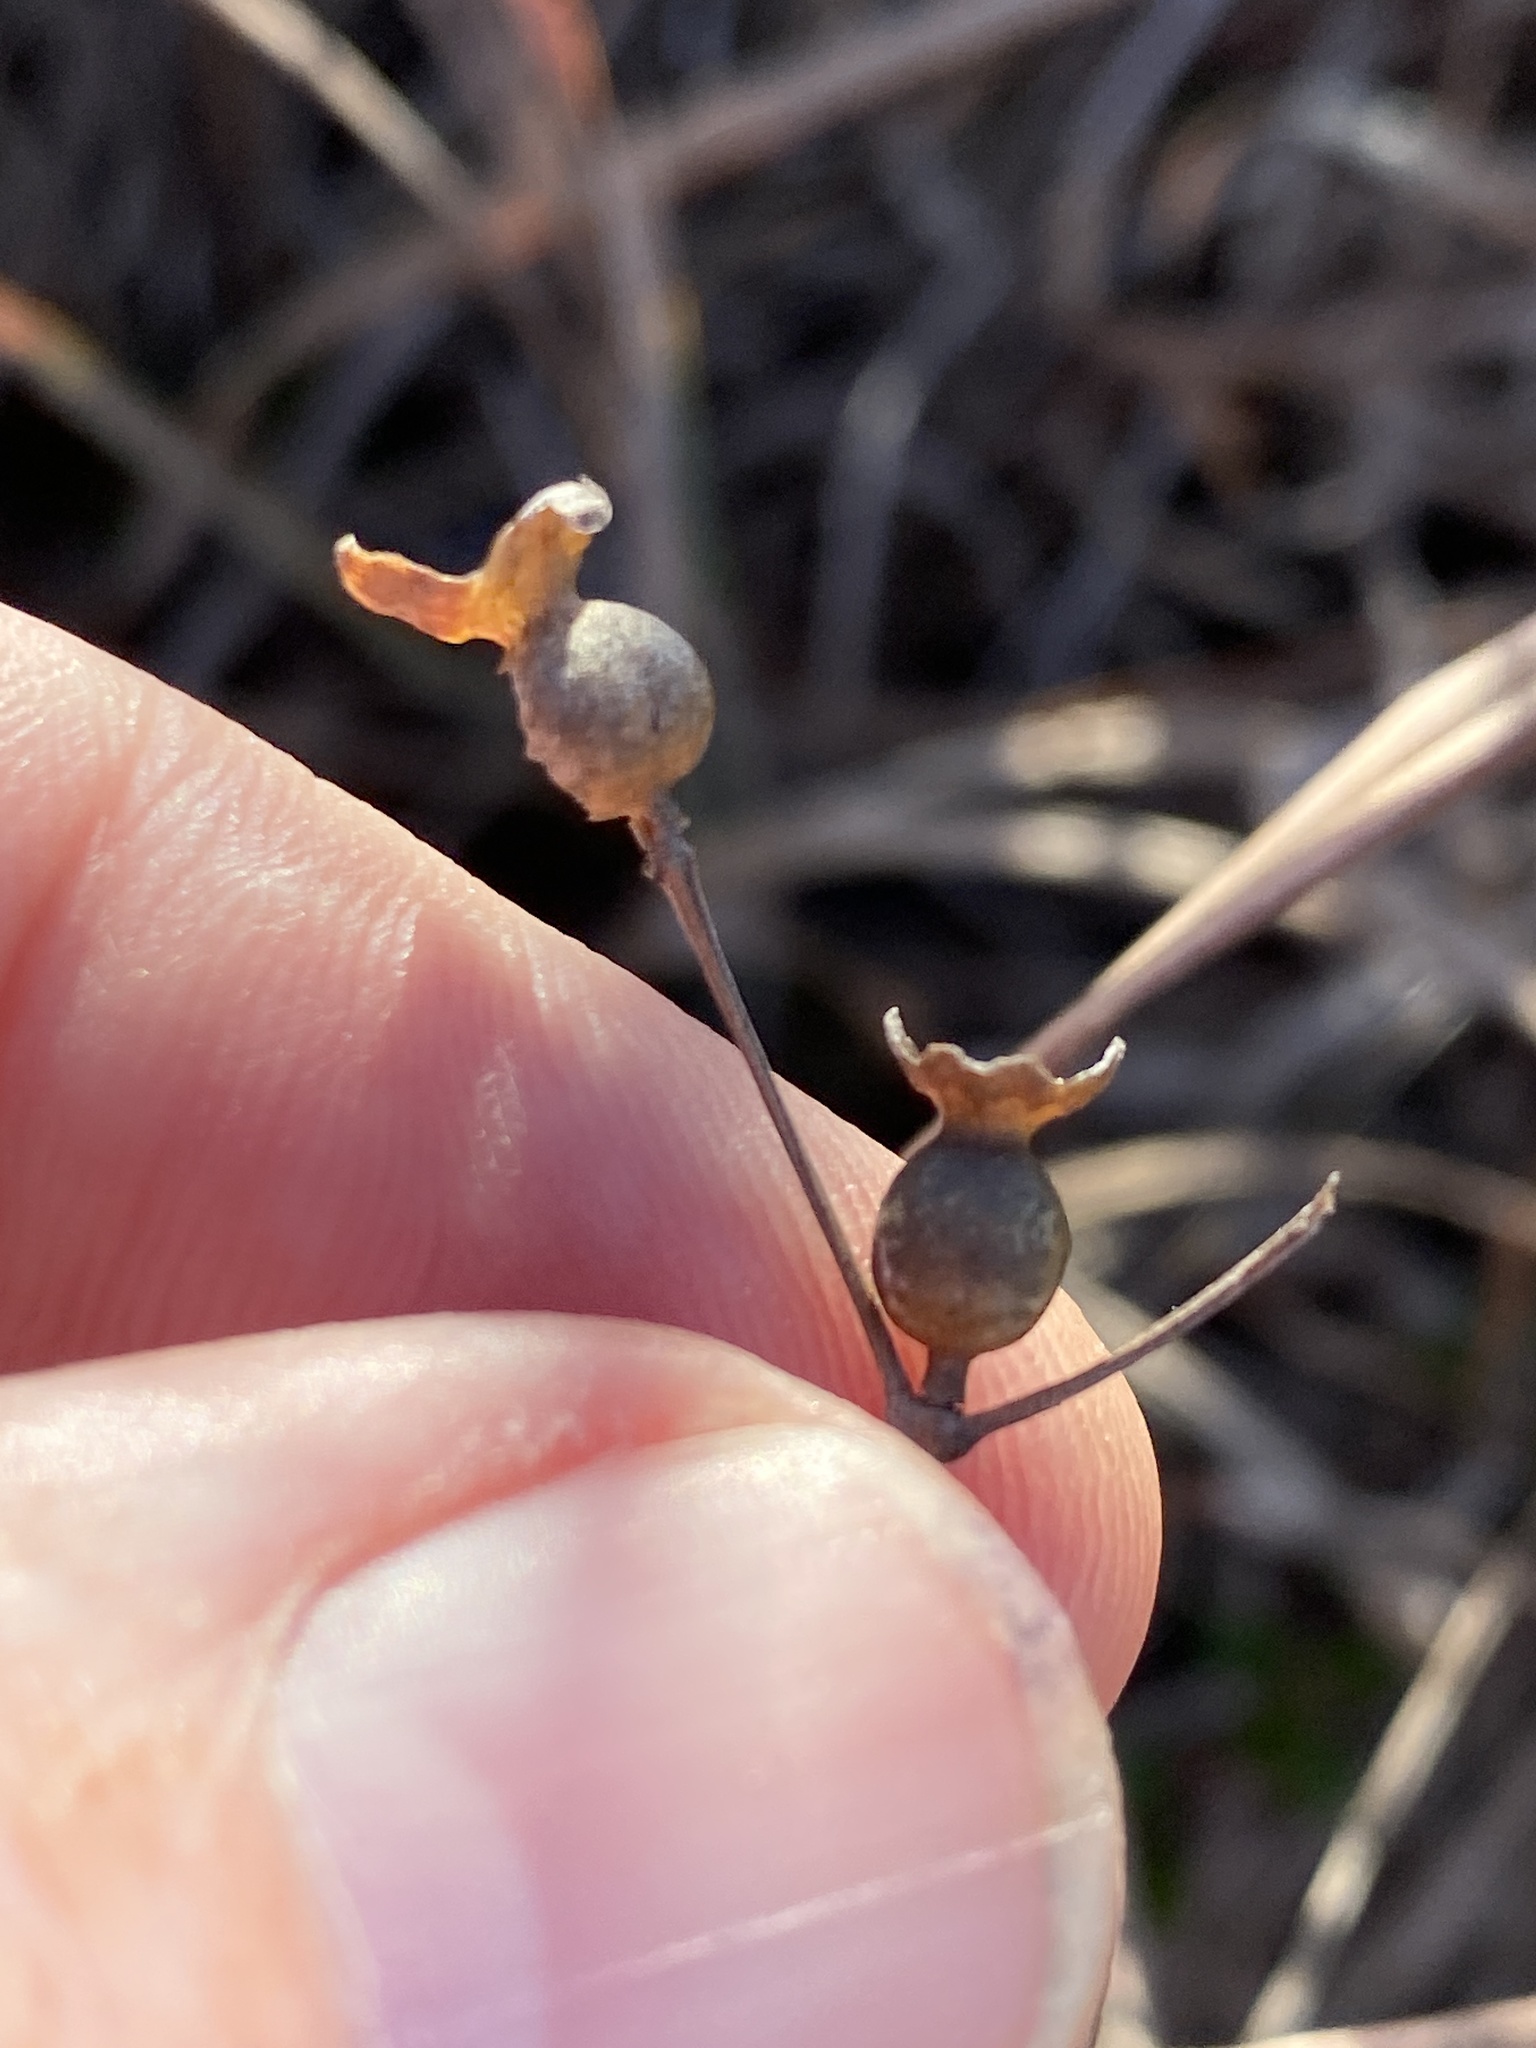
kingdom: Plantae
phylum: Tracheophyta
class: Magnoliopsida
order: Myrtales
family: Melastomataceae
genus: Rhexia
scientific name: Rhexia petiolata
